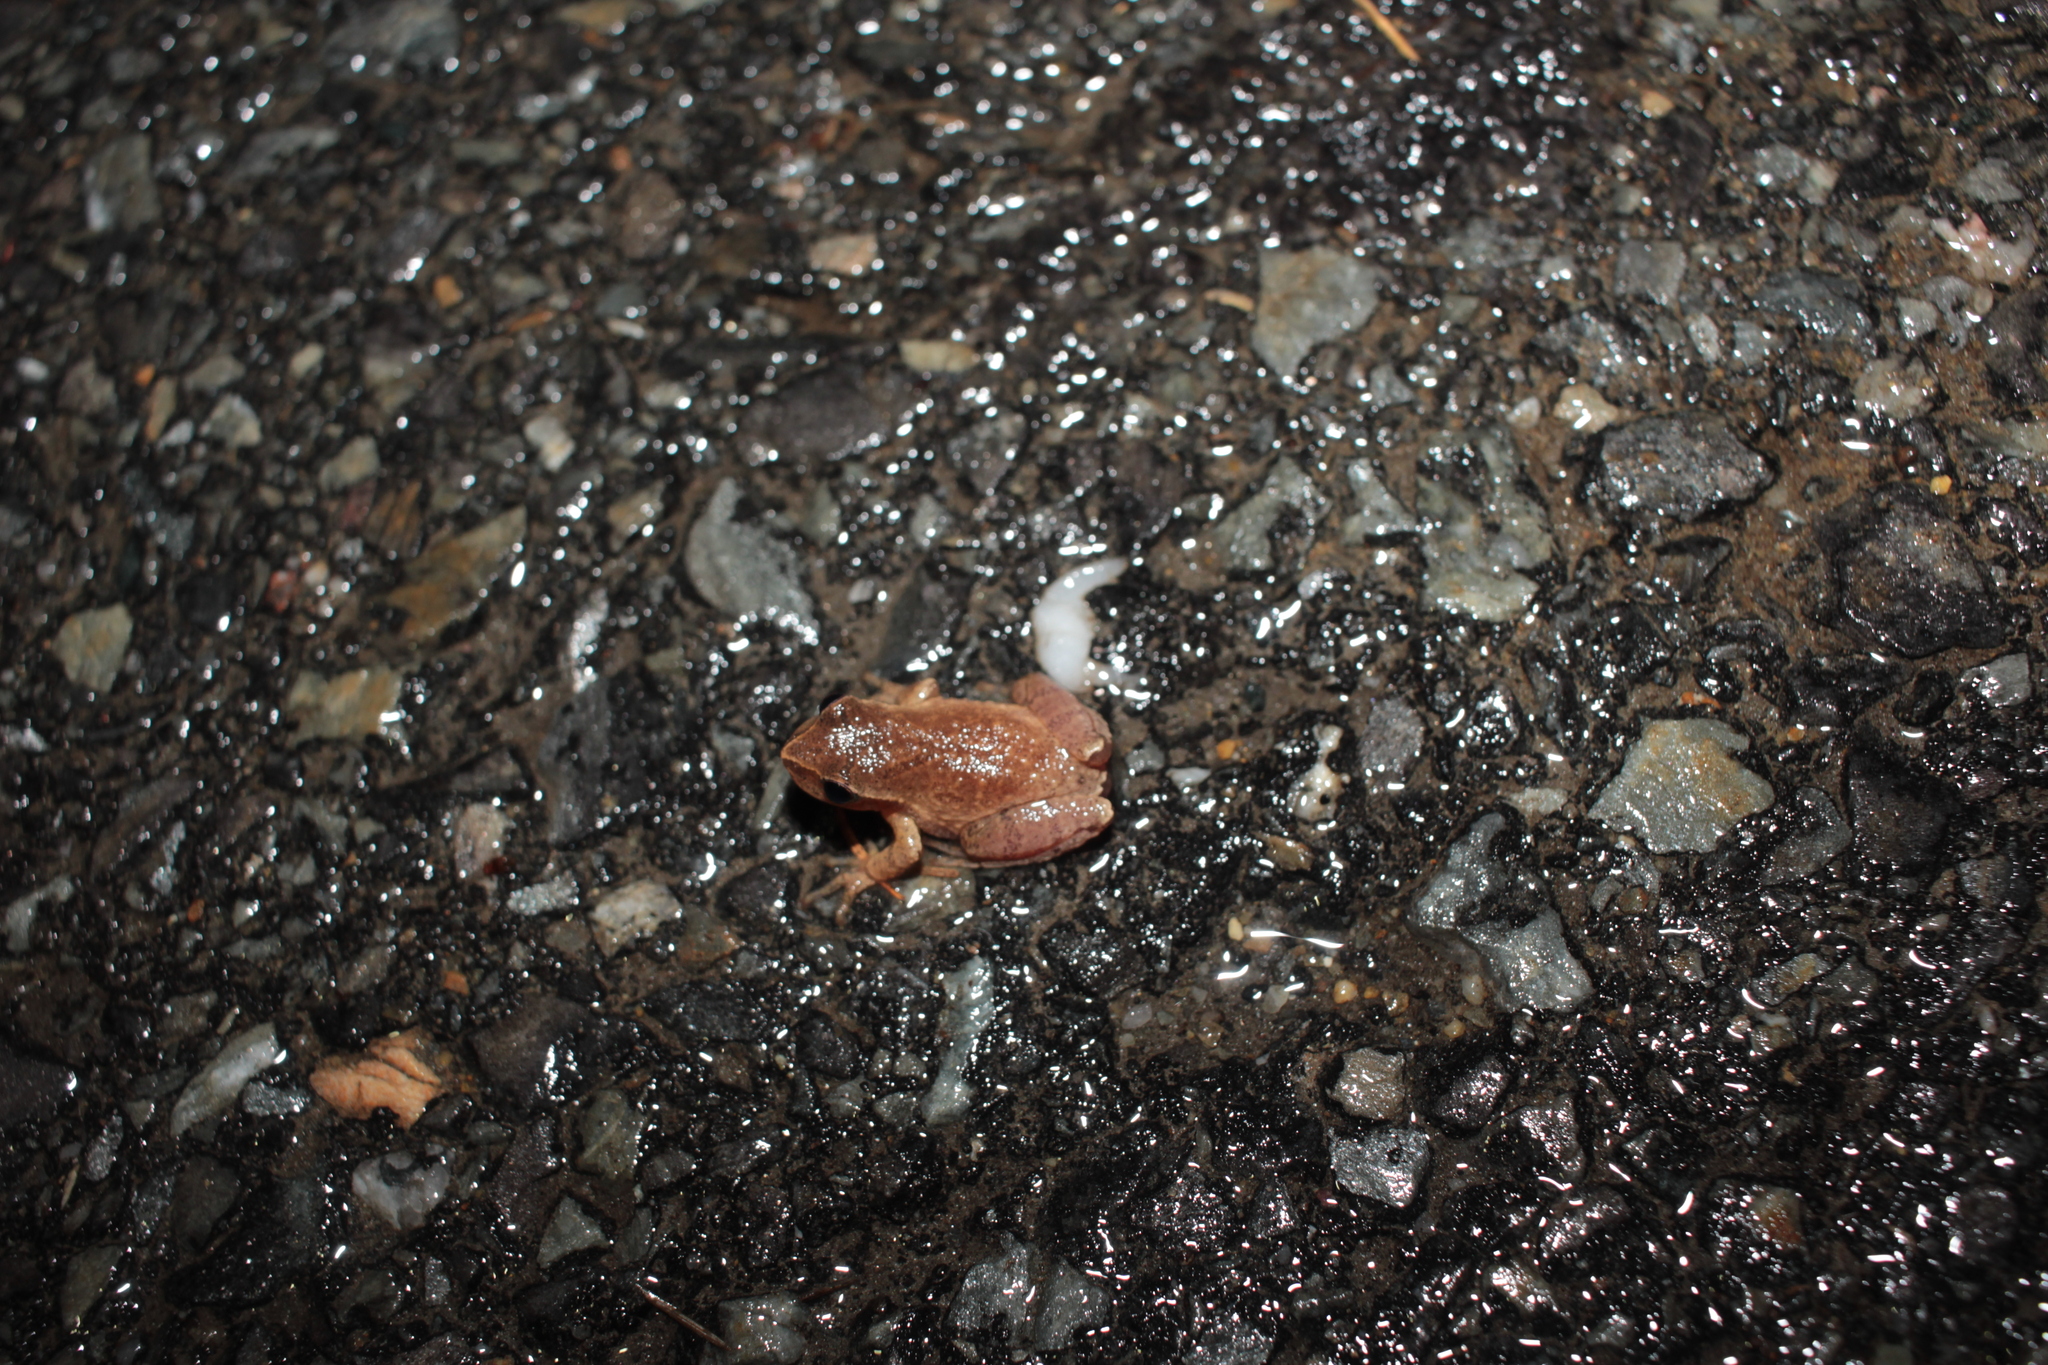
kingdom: Animalia
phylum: Chordata
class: Amphibia
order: Anura
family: Hylidae
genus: Pseudacris
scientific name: Pseudacris crucifer
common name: Spring peeper
